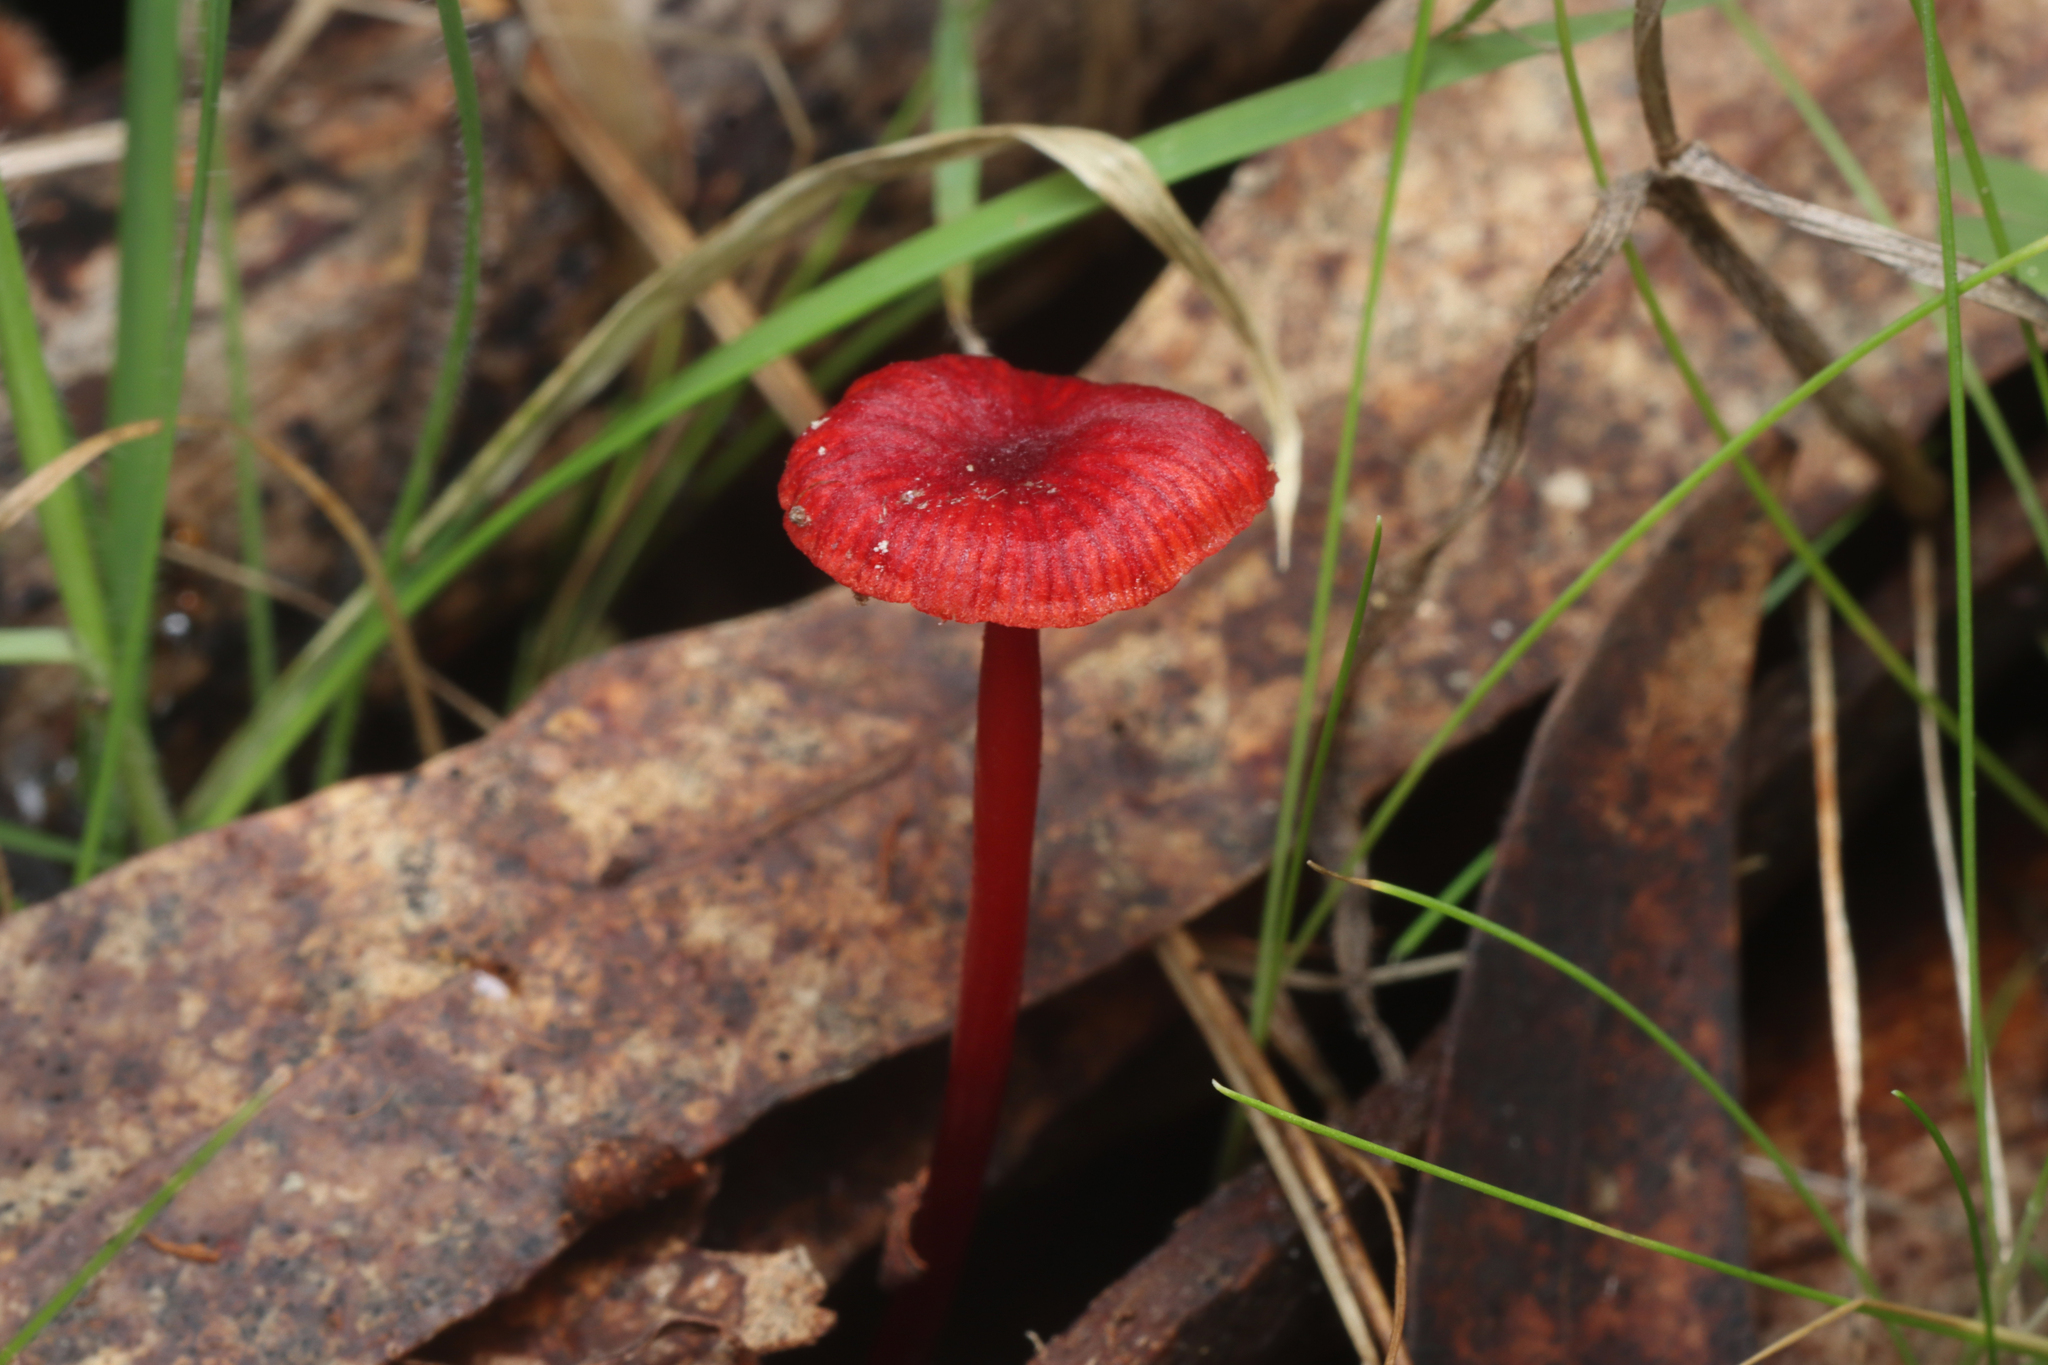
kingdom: Fungi
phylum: Basidiomycota
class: Agaricomycetes
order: Agaricales
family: Mycenaceae
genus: Cruentomycena
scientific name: Cruentomycena viscidocruenta
